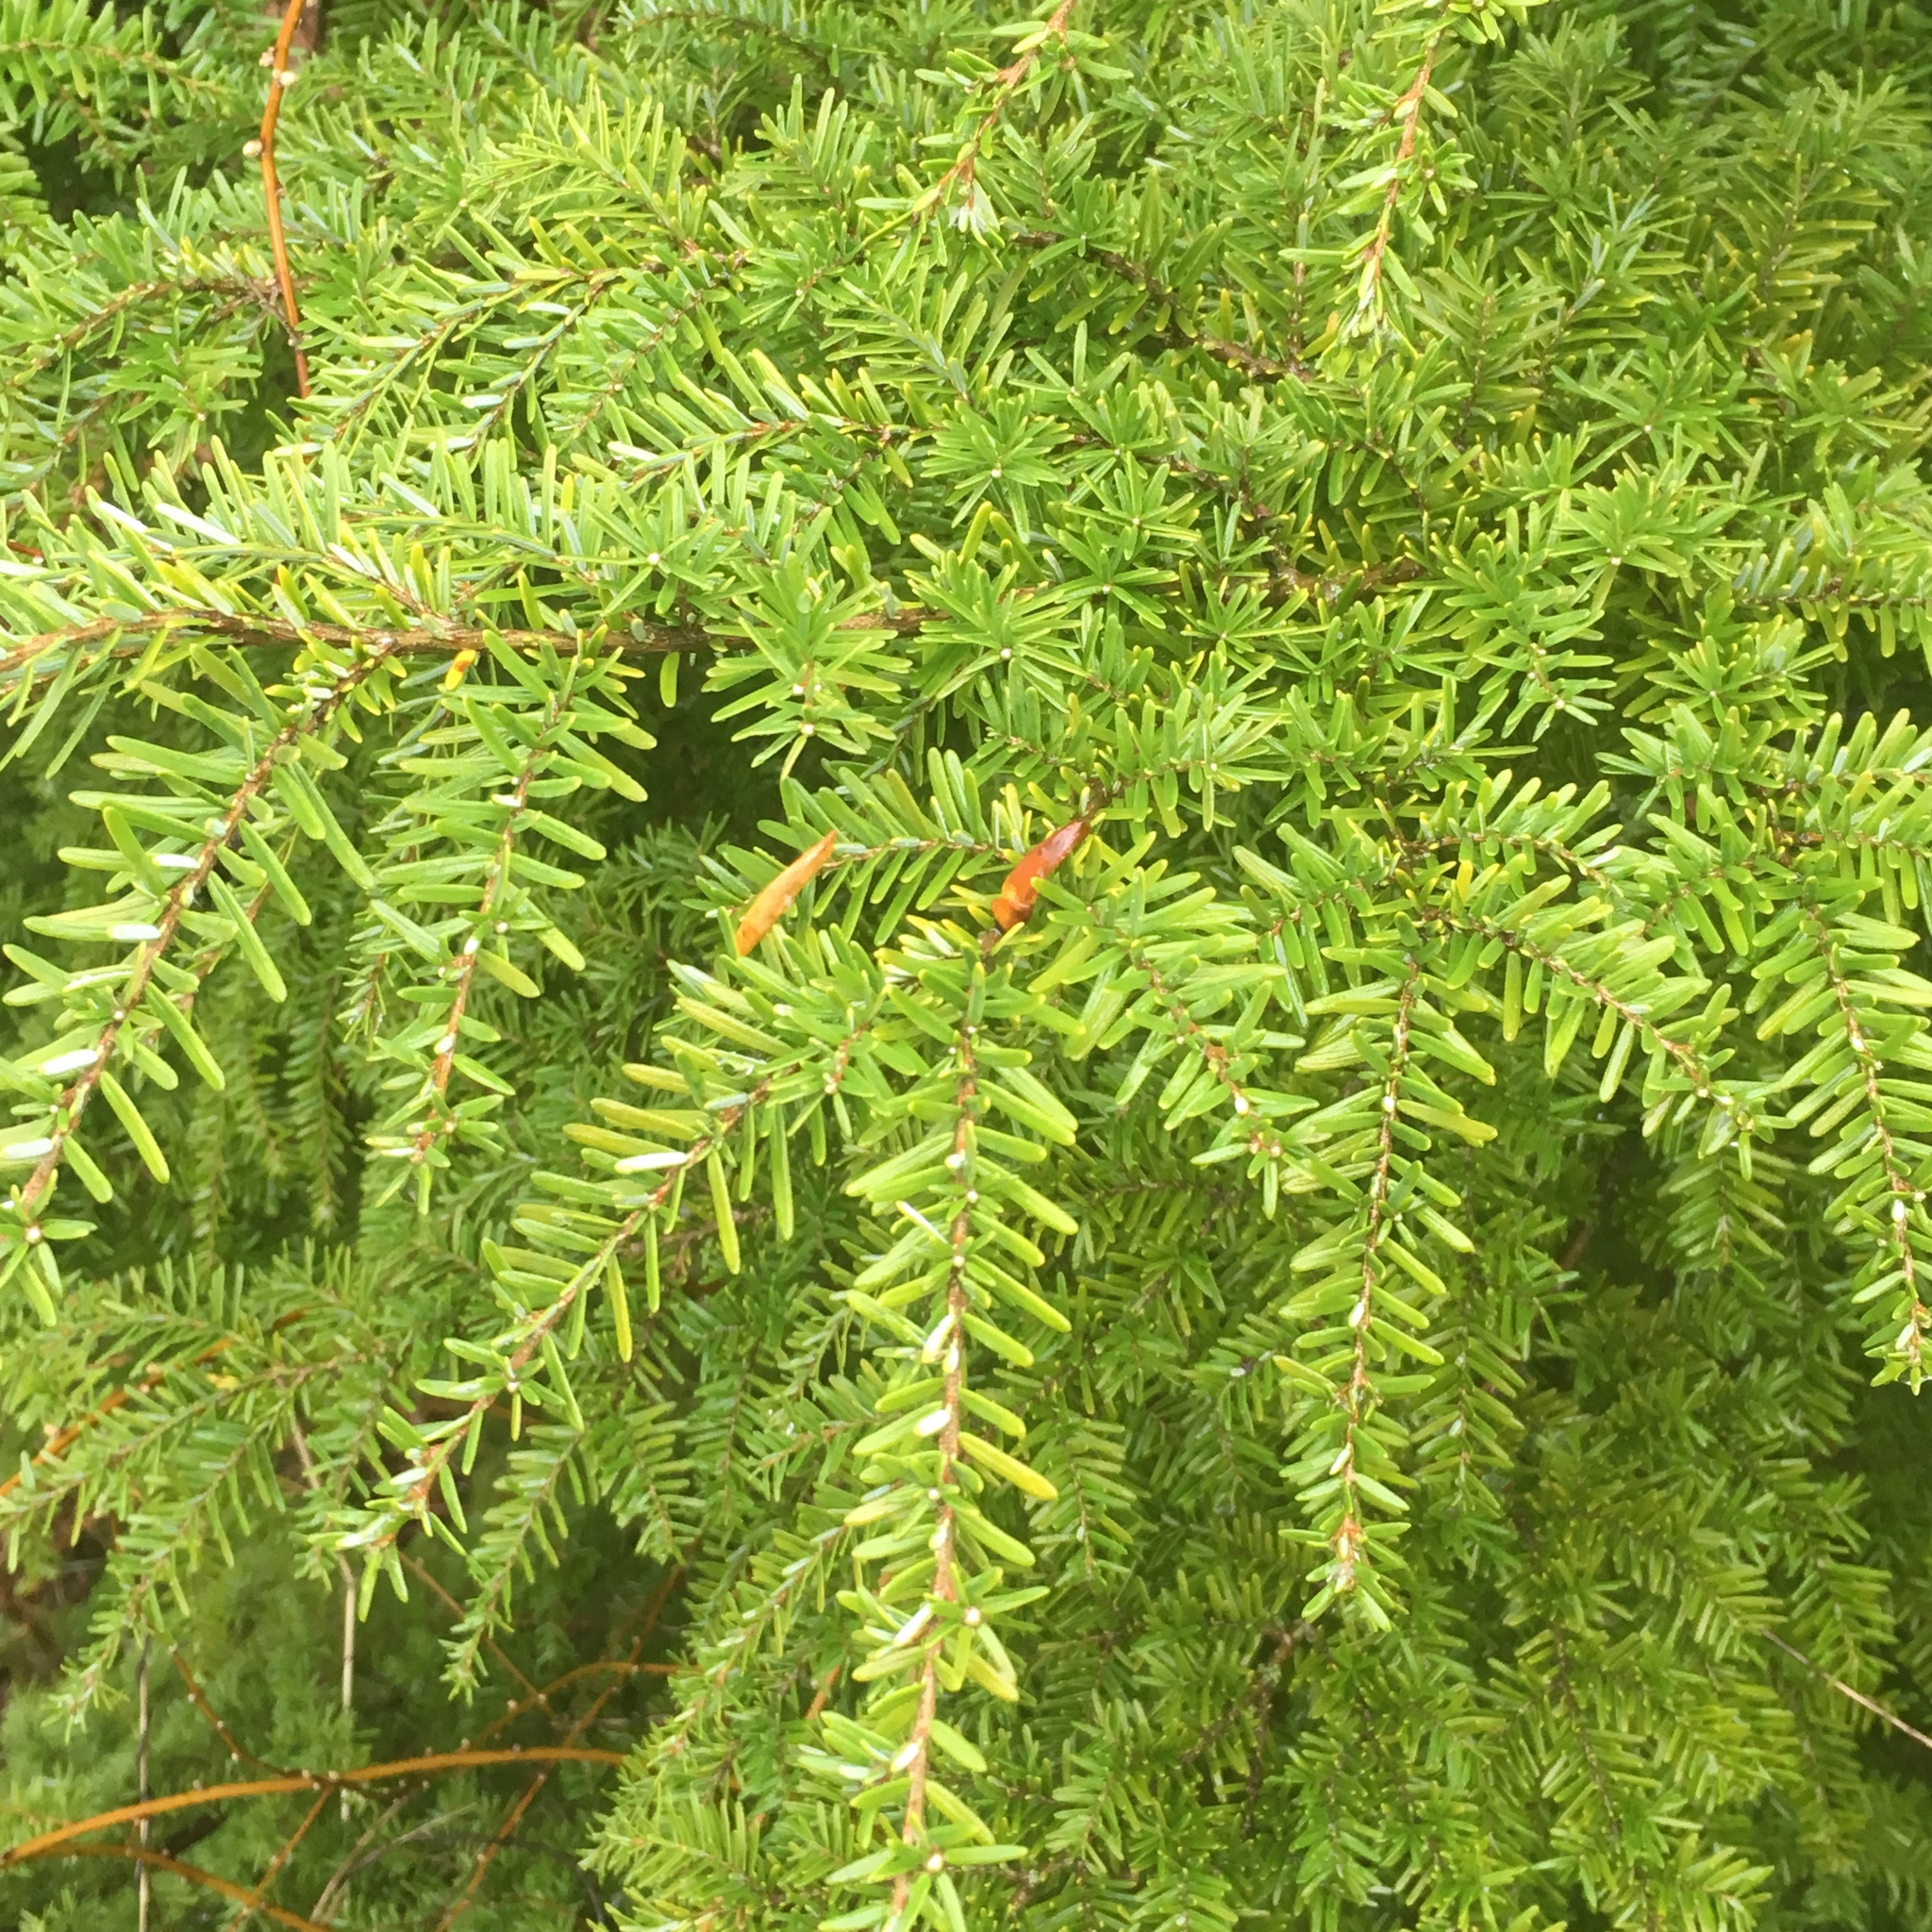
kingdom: Plantae
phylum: Tracheophyta
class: Pinopsida
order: Pinales
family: Pinaceae
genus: Tsuga
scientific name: Tsuga heterophylla
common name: Western hemlock
